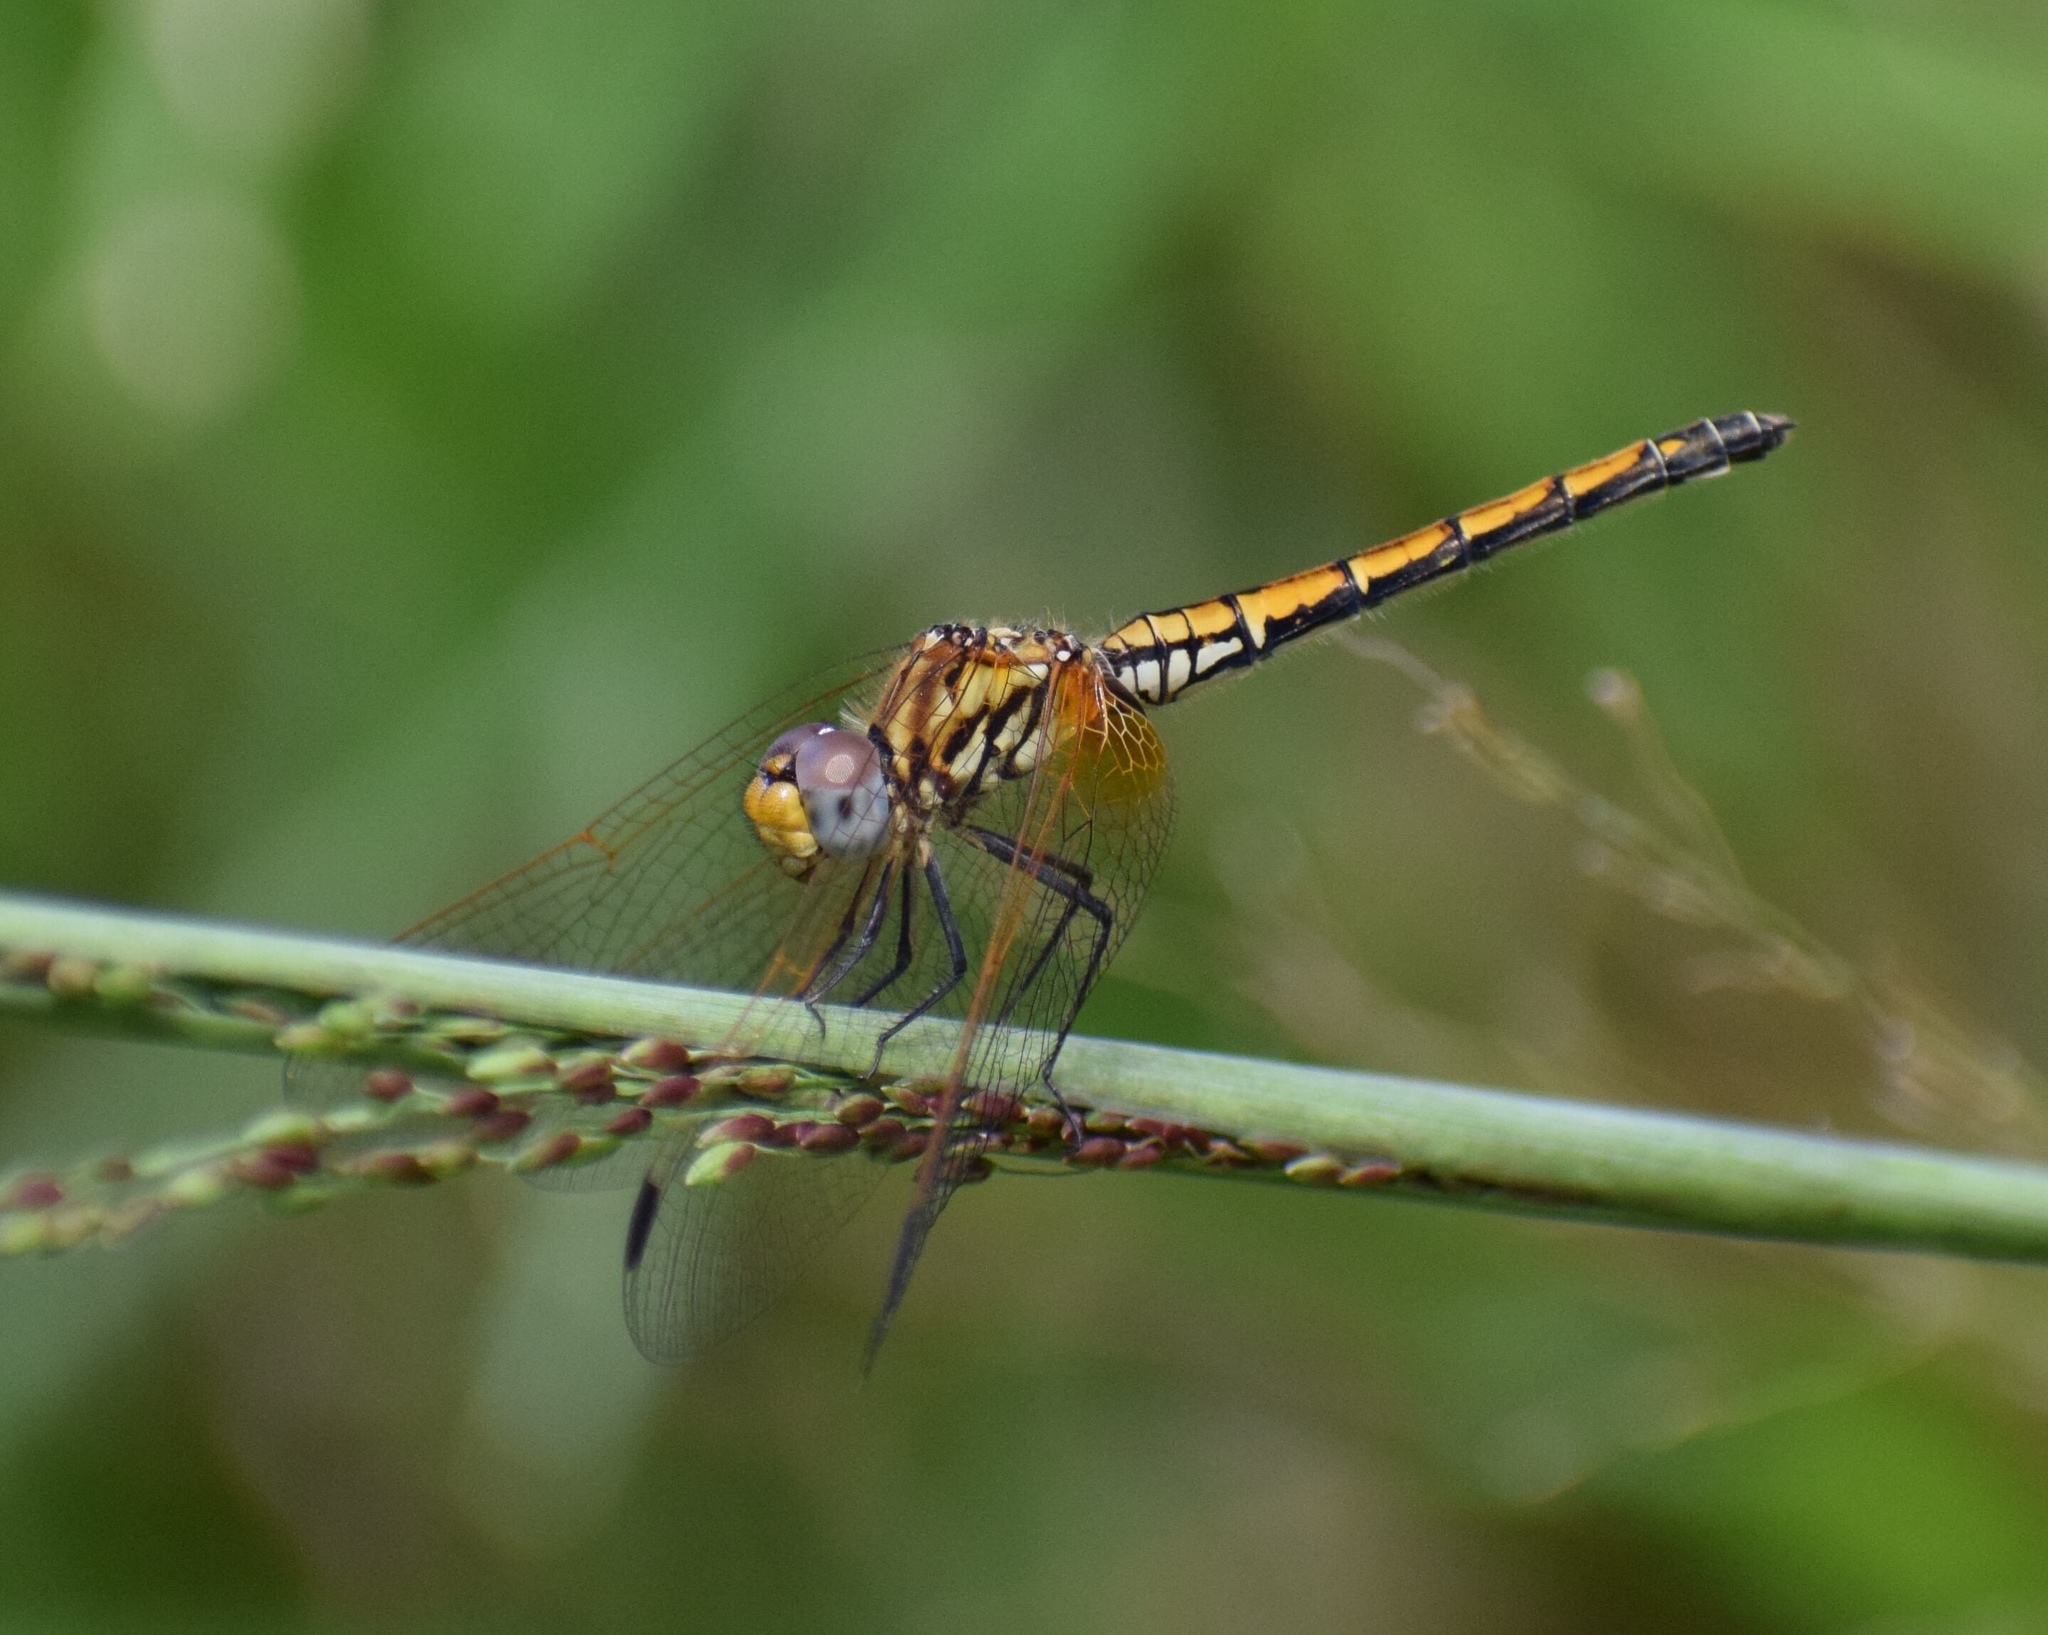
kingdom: Animalia
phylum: Arthropoda
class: Insecta
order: Odonata
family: Libellulidae
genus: Trithemis
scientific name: Trithemis arteriosa
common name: Red-veined dropwing
